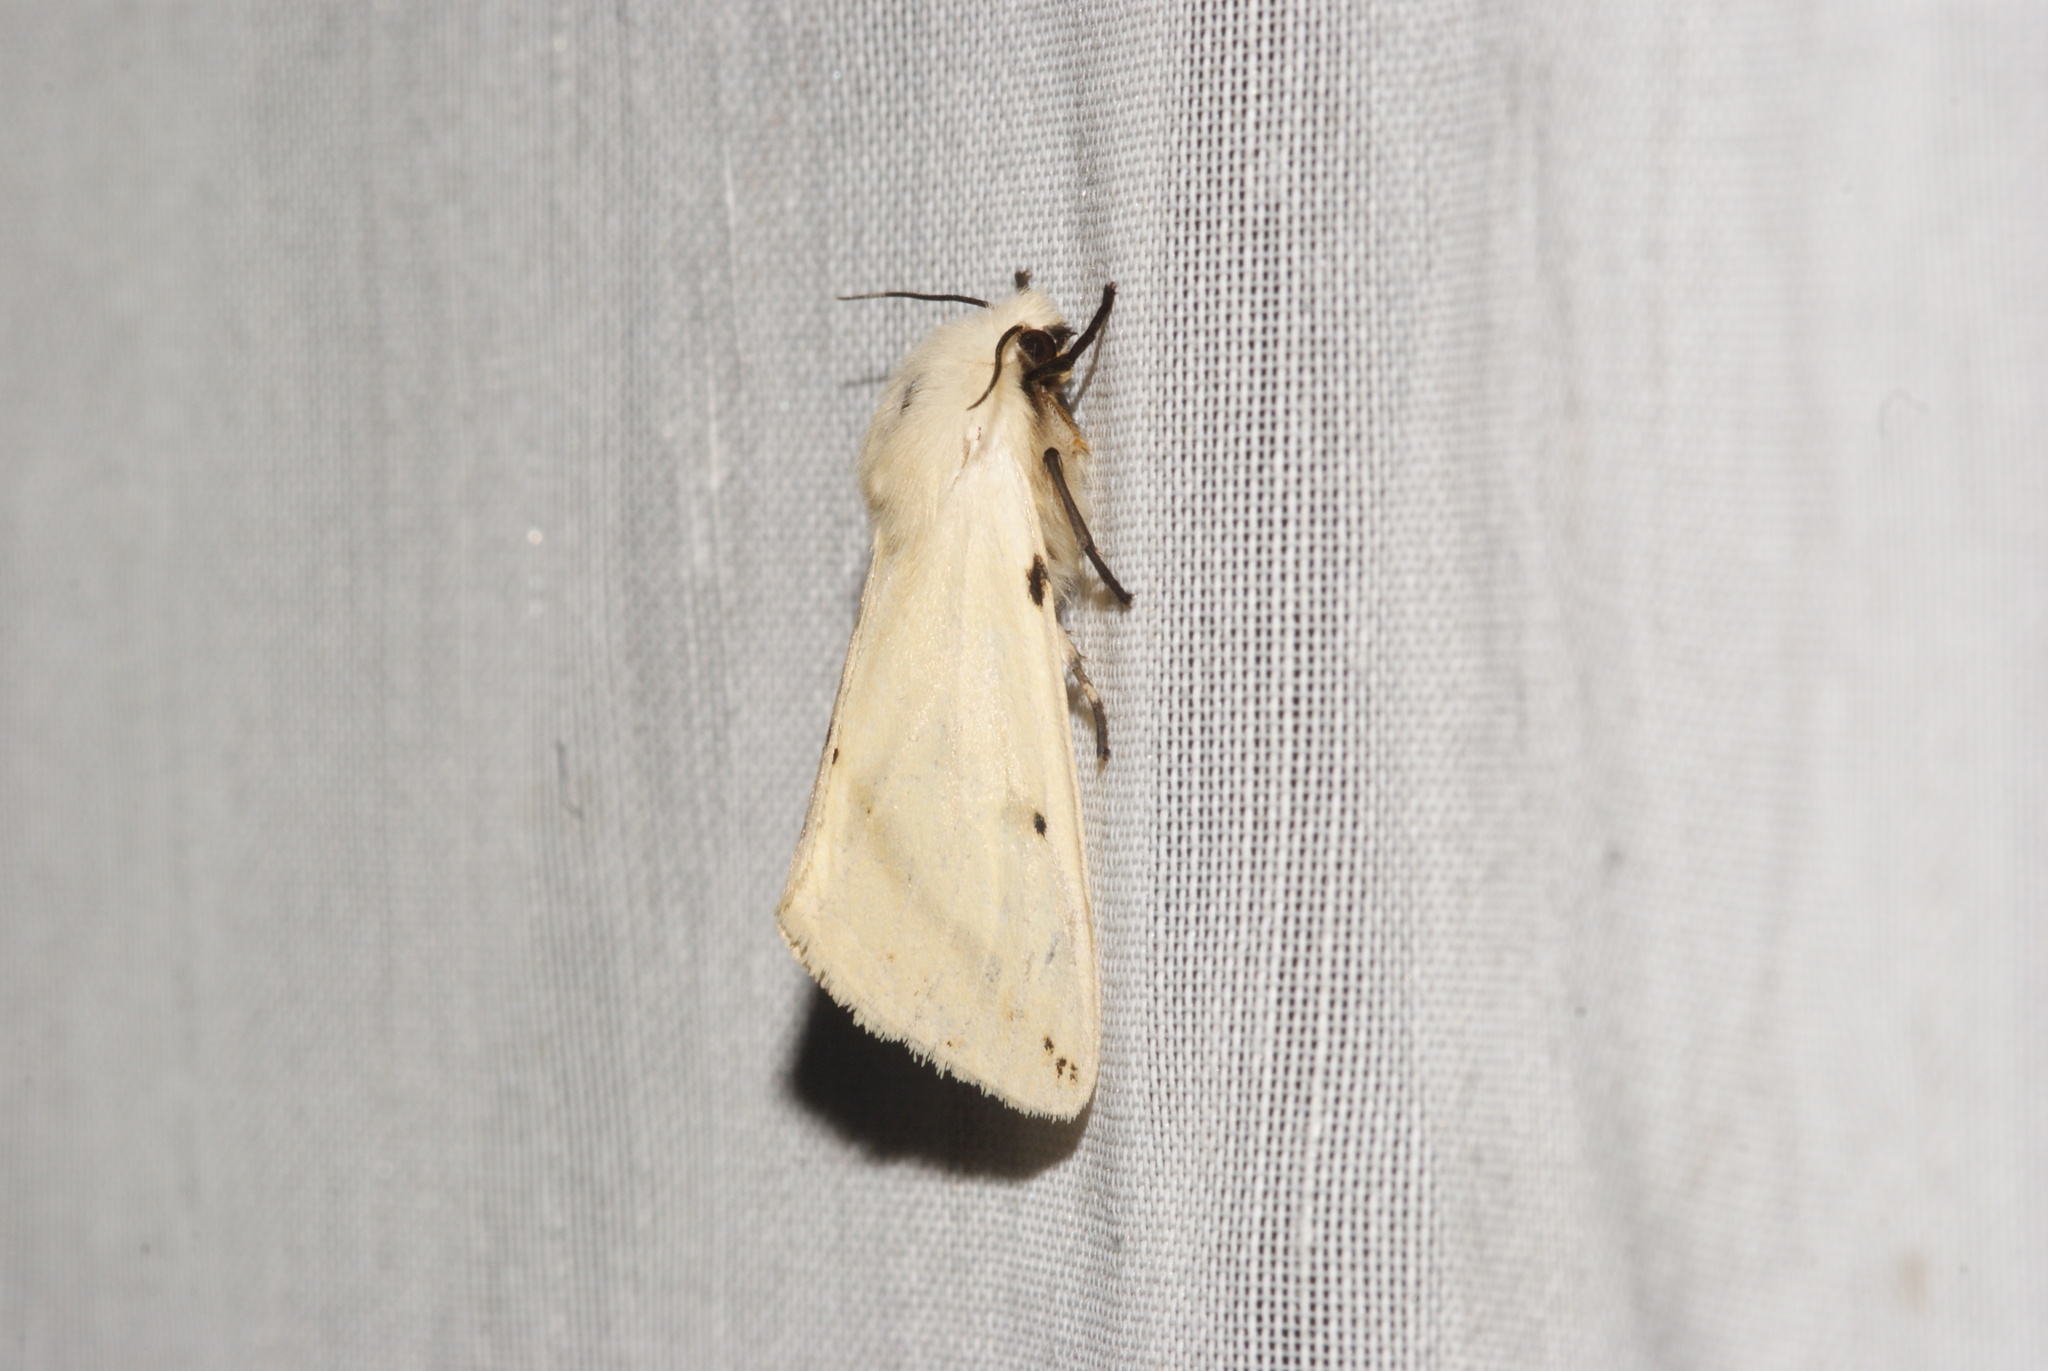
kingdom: Animalia
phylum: Arthropoda
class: Insecta
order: Lepidoptera
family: Erebidae
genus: Spilarctia
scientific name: Spilarctia lutea
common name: Buff ermine
